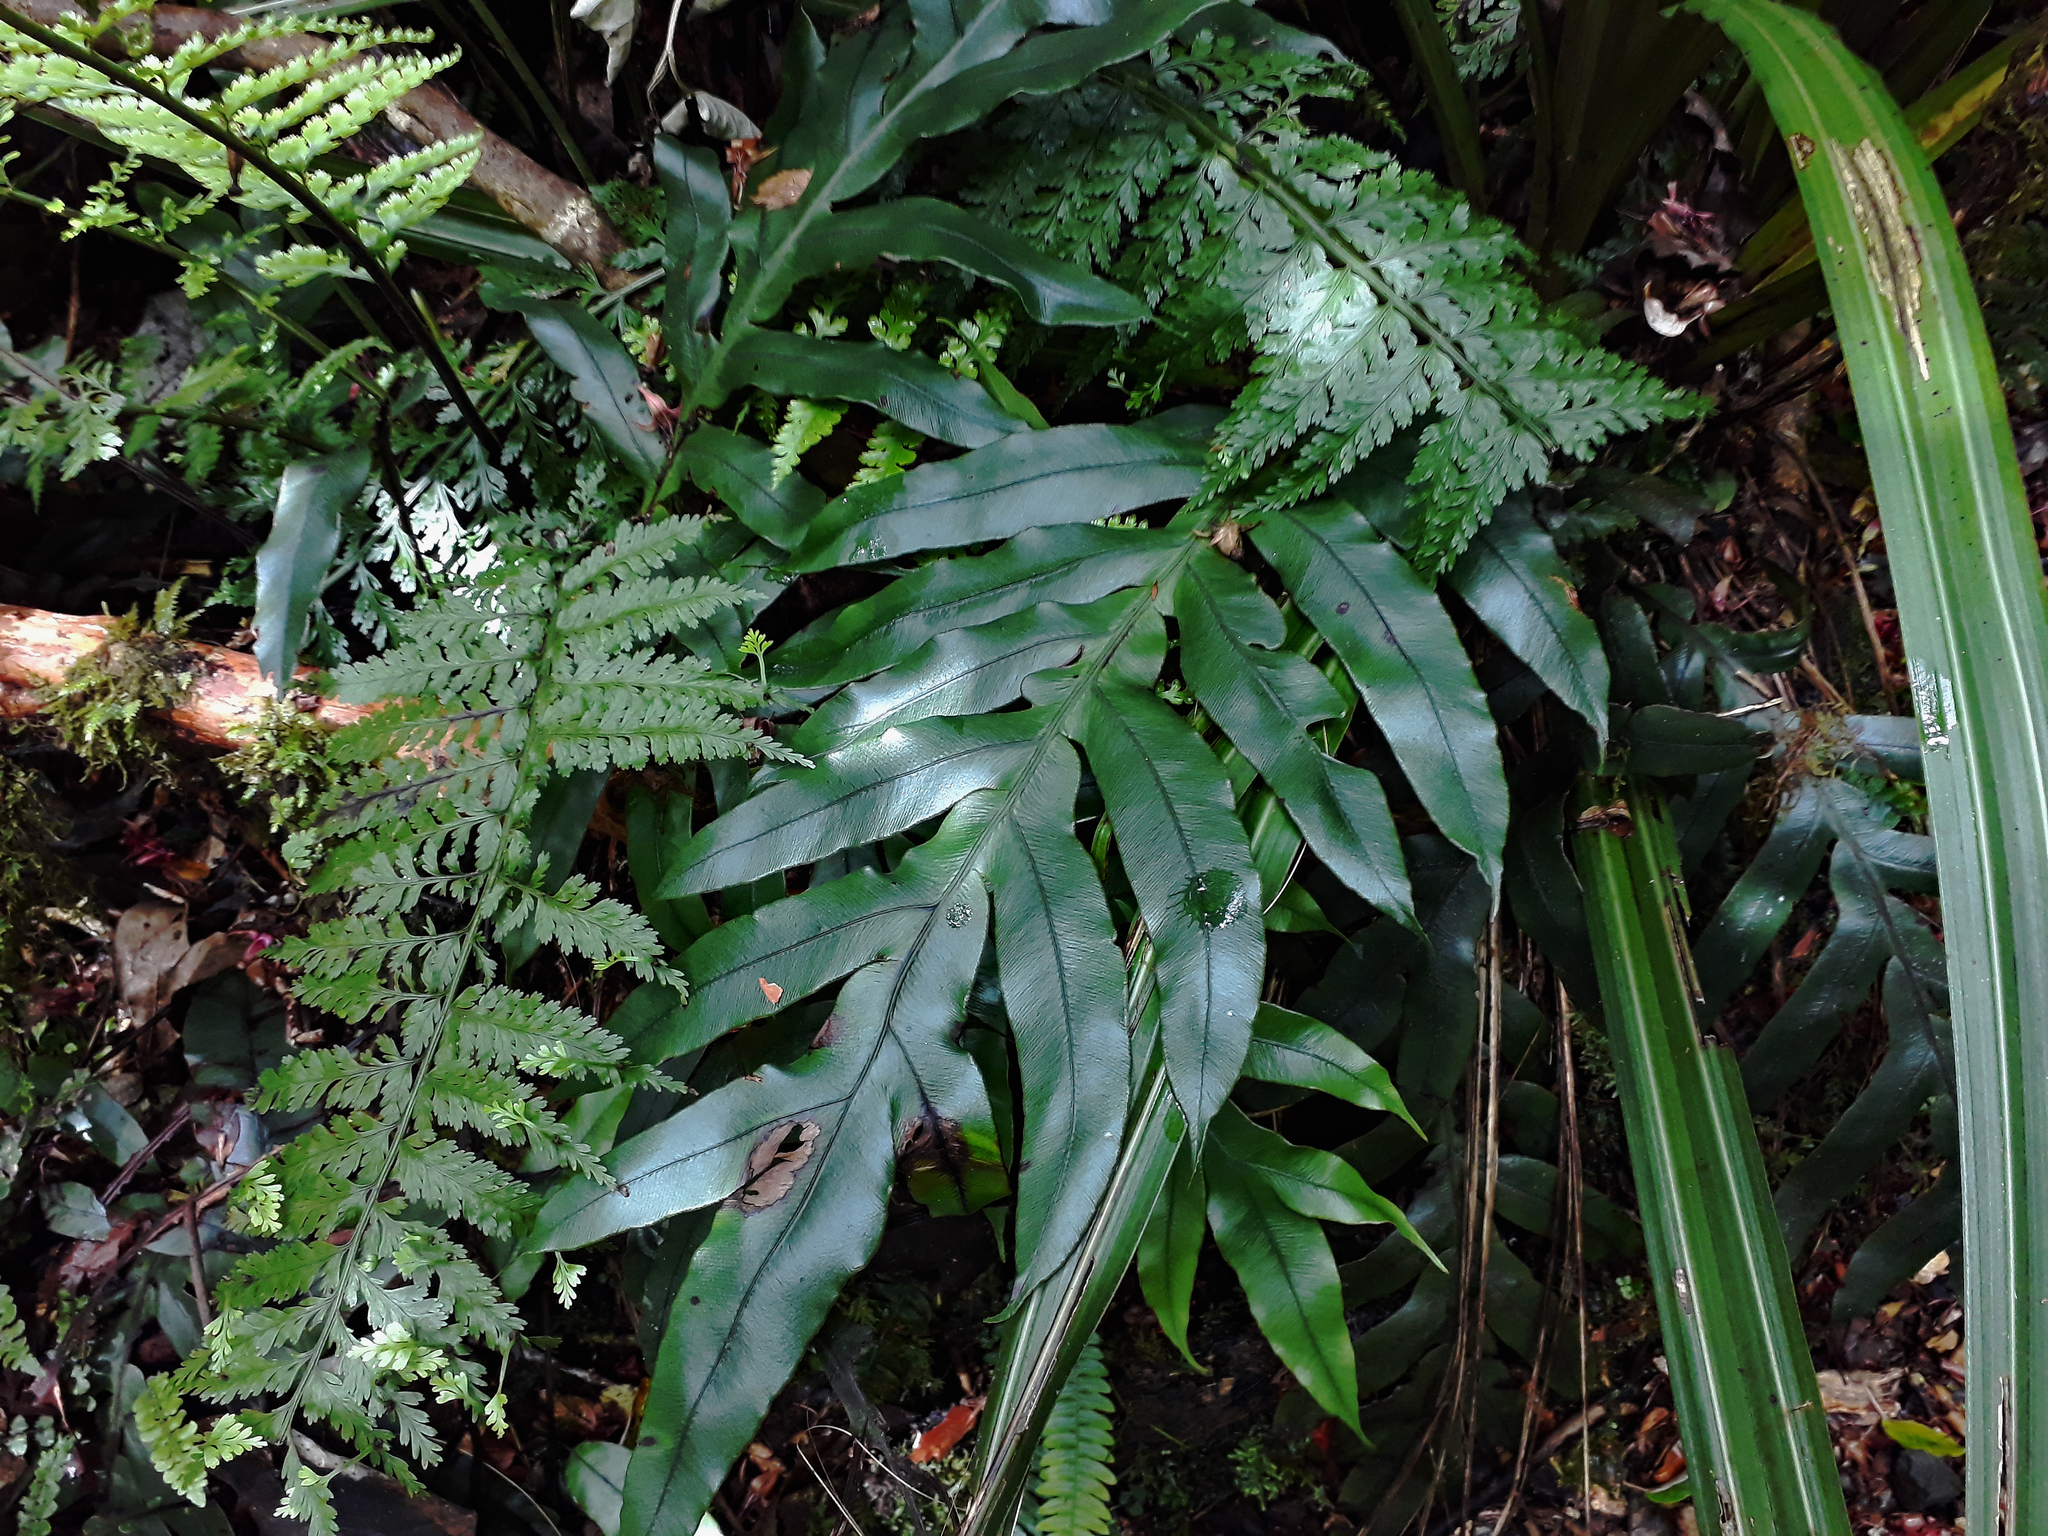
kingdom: Plantae
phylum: Tracheophyta
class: Polypodiopsida
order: Polypodiales
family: Blechnaceae
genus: Austroblechnum
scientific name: Austroblechnum colensoi
